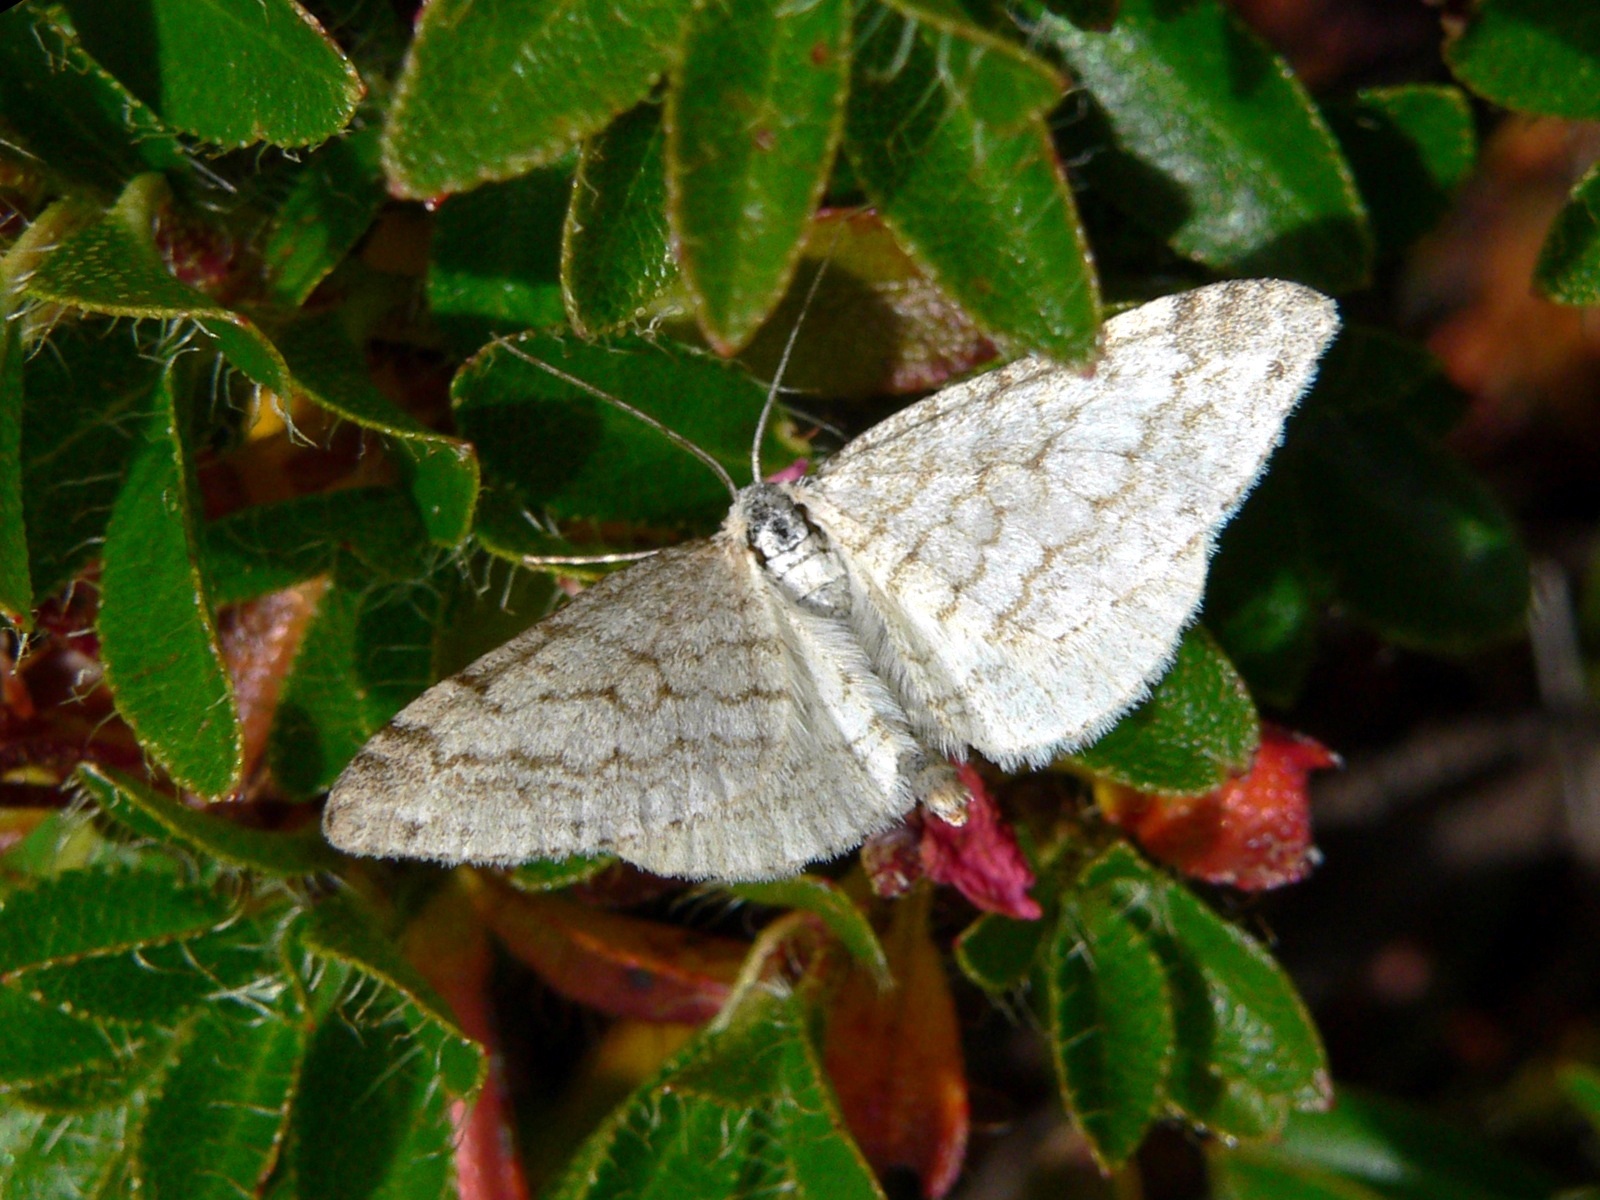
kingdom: Animalia
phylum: Arthropoda
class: Insecta
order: Lepidoptera
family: Geometridae
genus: Perizoma
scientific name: Perizoma verberata
